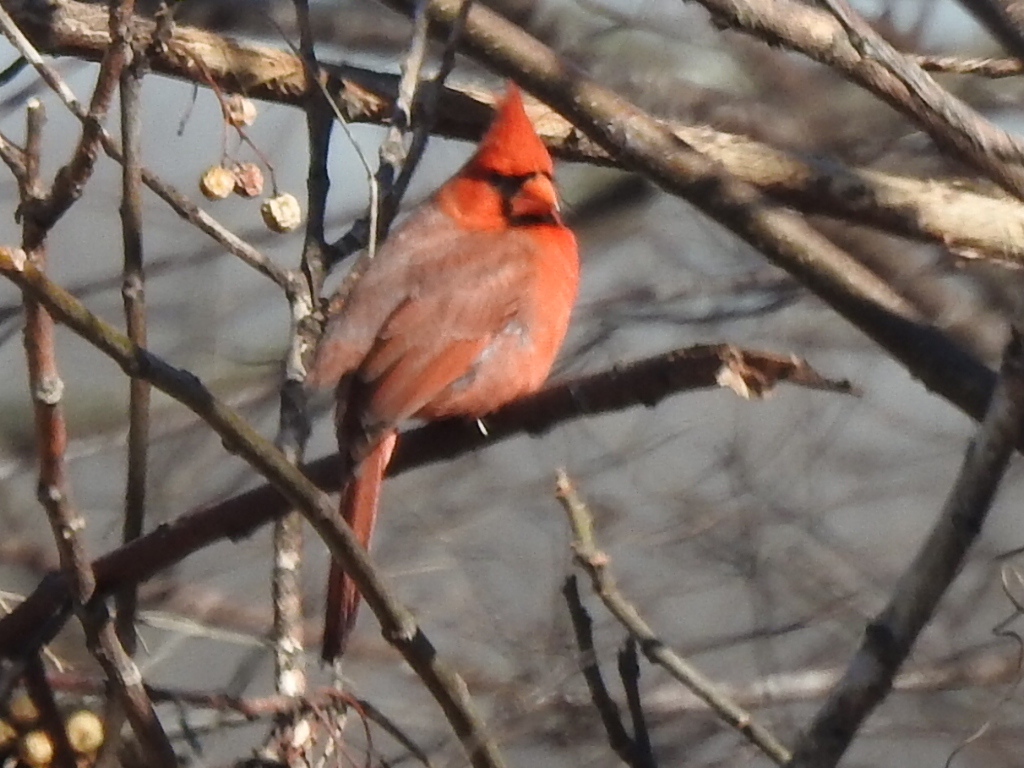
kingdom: Animalia
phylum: Chordata
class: Aves
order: Passeriformes
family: Cardinalidae
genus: Cardinalis
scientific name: Cardinalis cardinalis
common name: Northern cardinal
